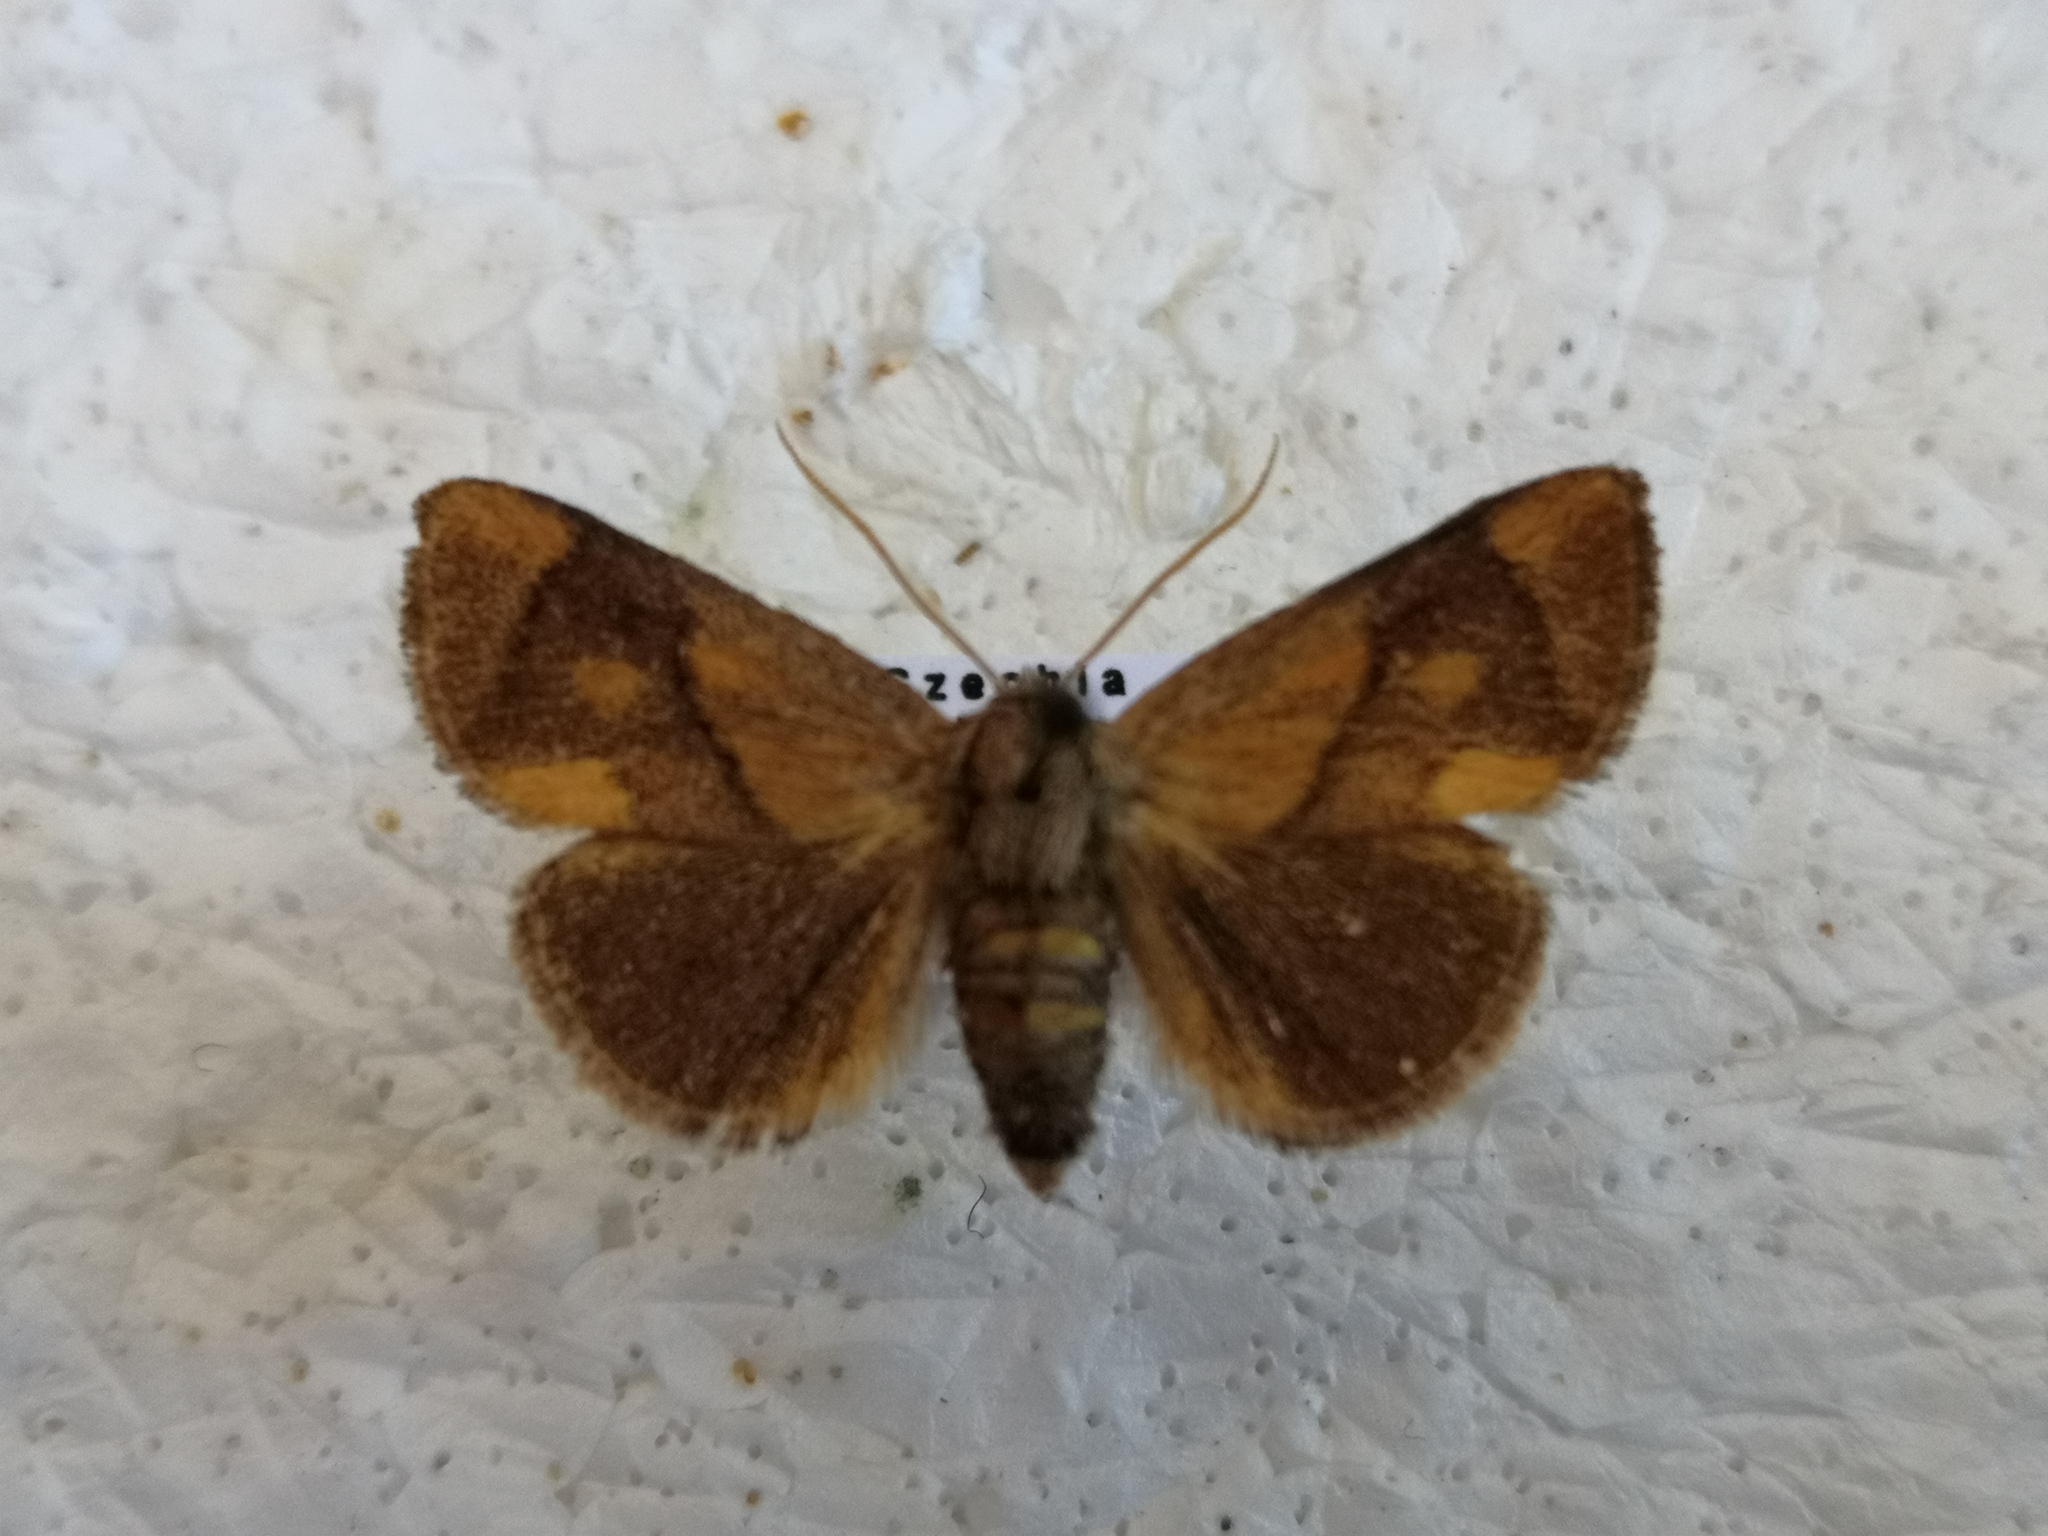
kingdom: Animalia
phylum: Arthropoda
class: Insecta
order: Lepidoptera
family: Limacodidae
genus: Apoda
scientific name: Apoda limacodes
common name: Festoon
